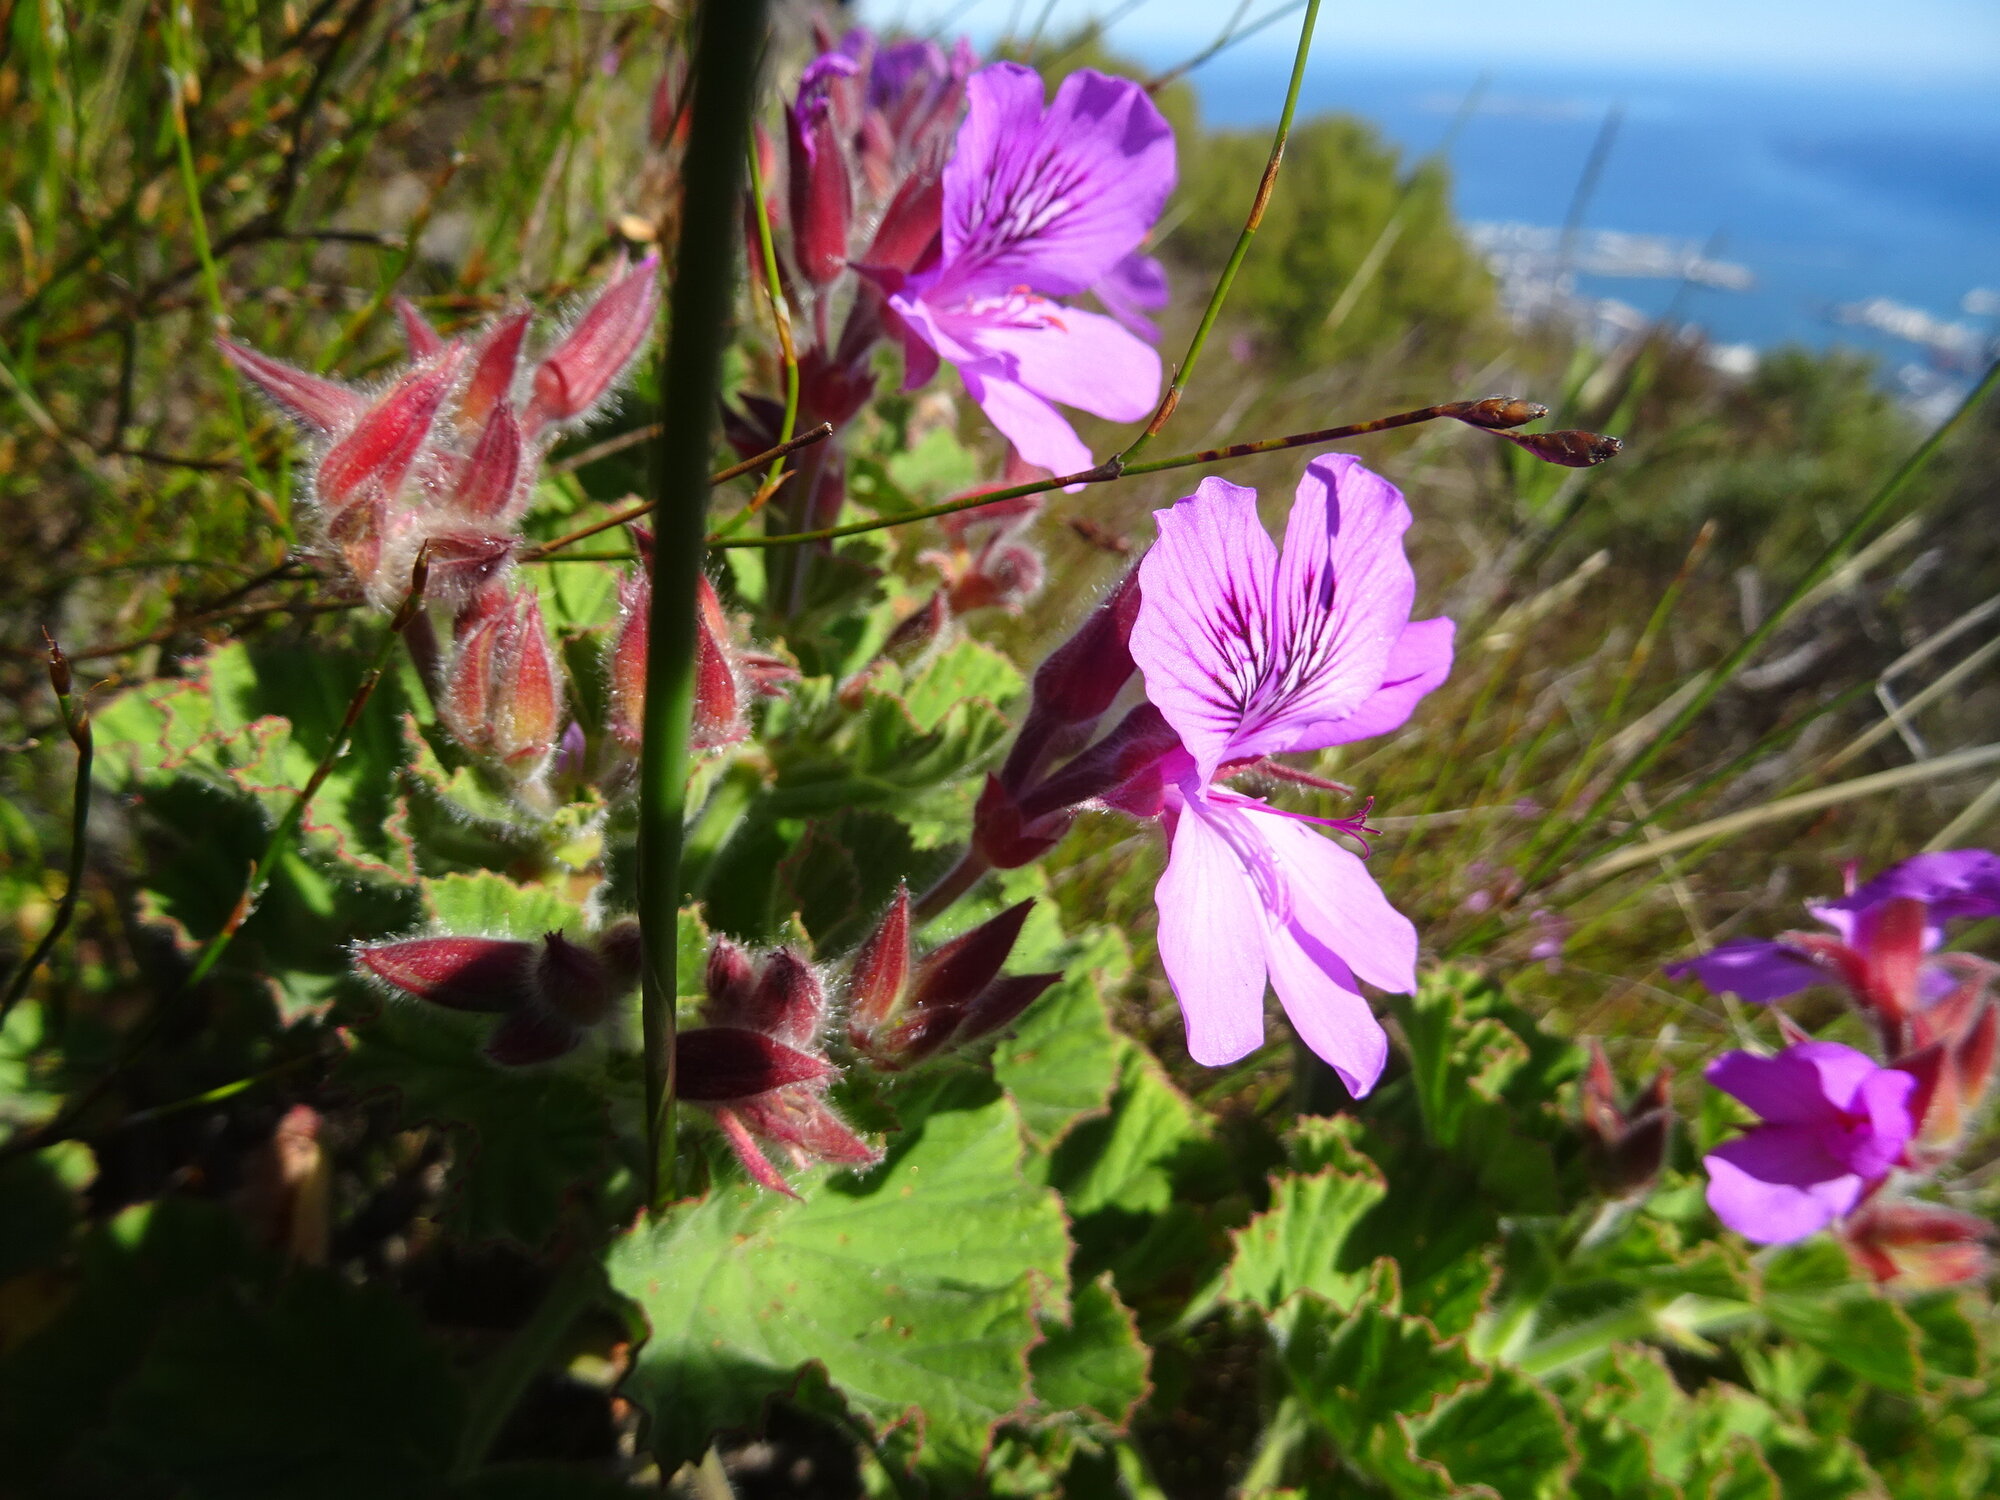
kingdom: Plantae
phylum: Tracheophyta
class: Magnoliopsida
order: Geraniales
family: Geraniaceae
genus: Pelargonium
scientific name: Pelargonium cucullatum
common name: Tree pelargonium
